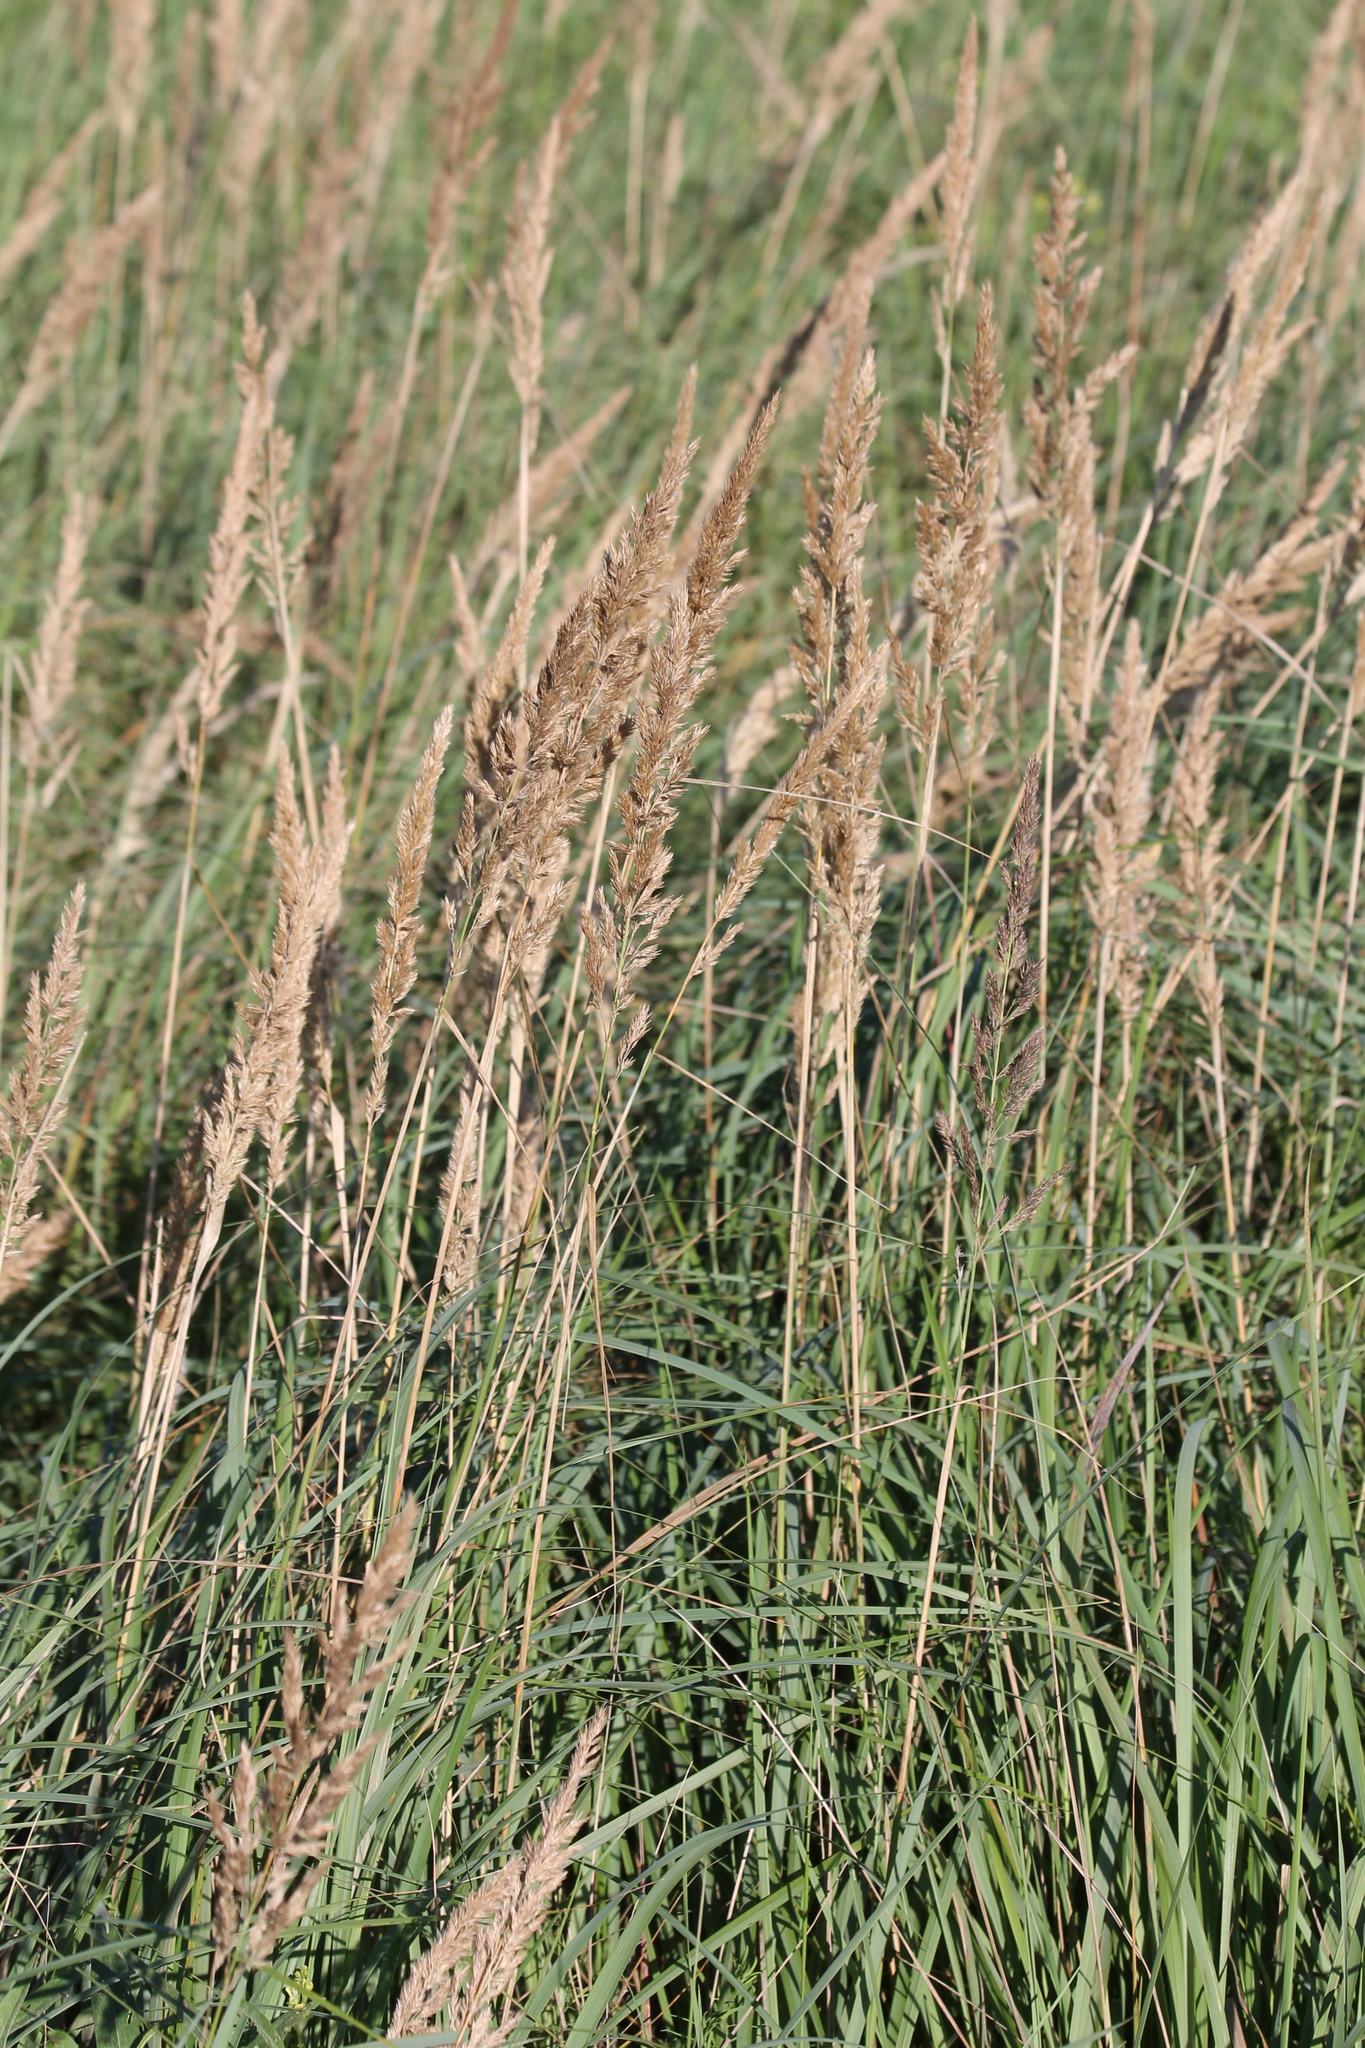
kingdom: Plantae
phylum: Tracheophyta
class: Liliopsida
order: Poales
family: Poaceae
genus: Calamagrostis
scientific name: Calamagrostis epigejos
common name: Wood small-reed
